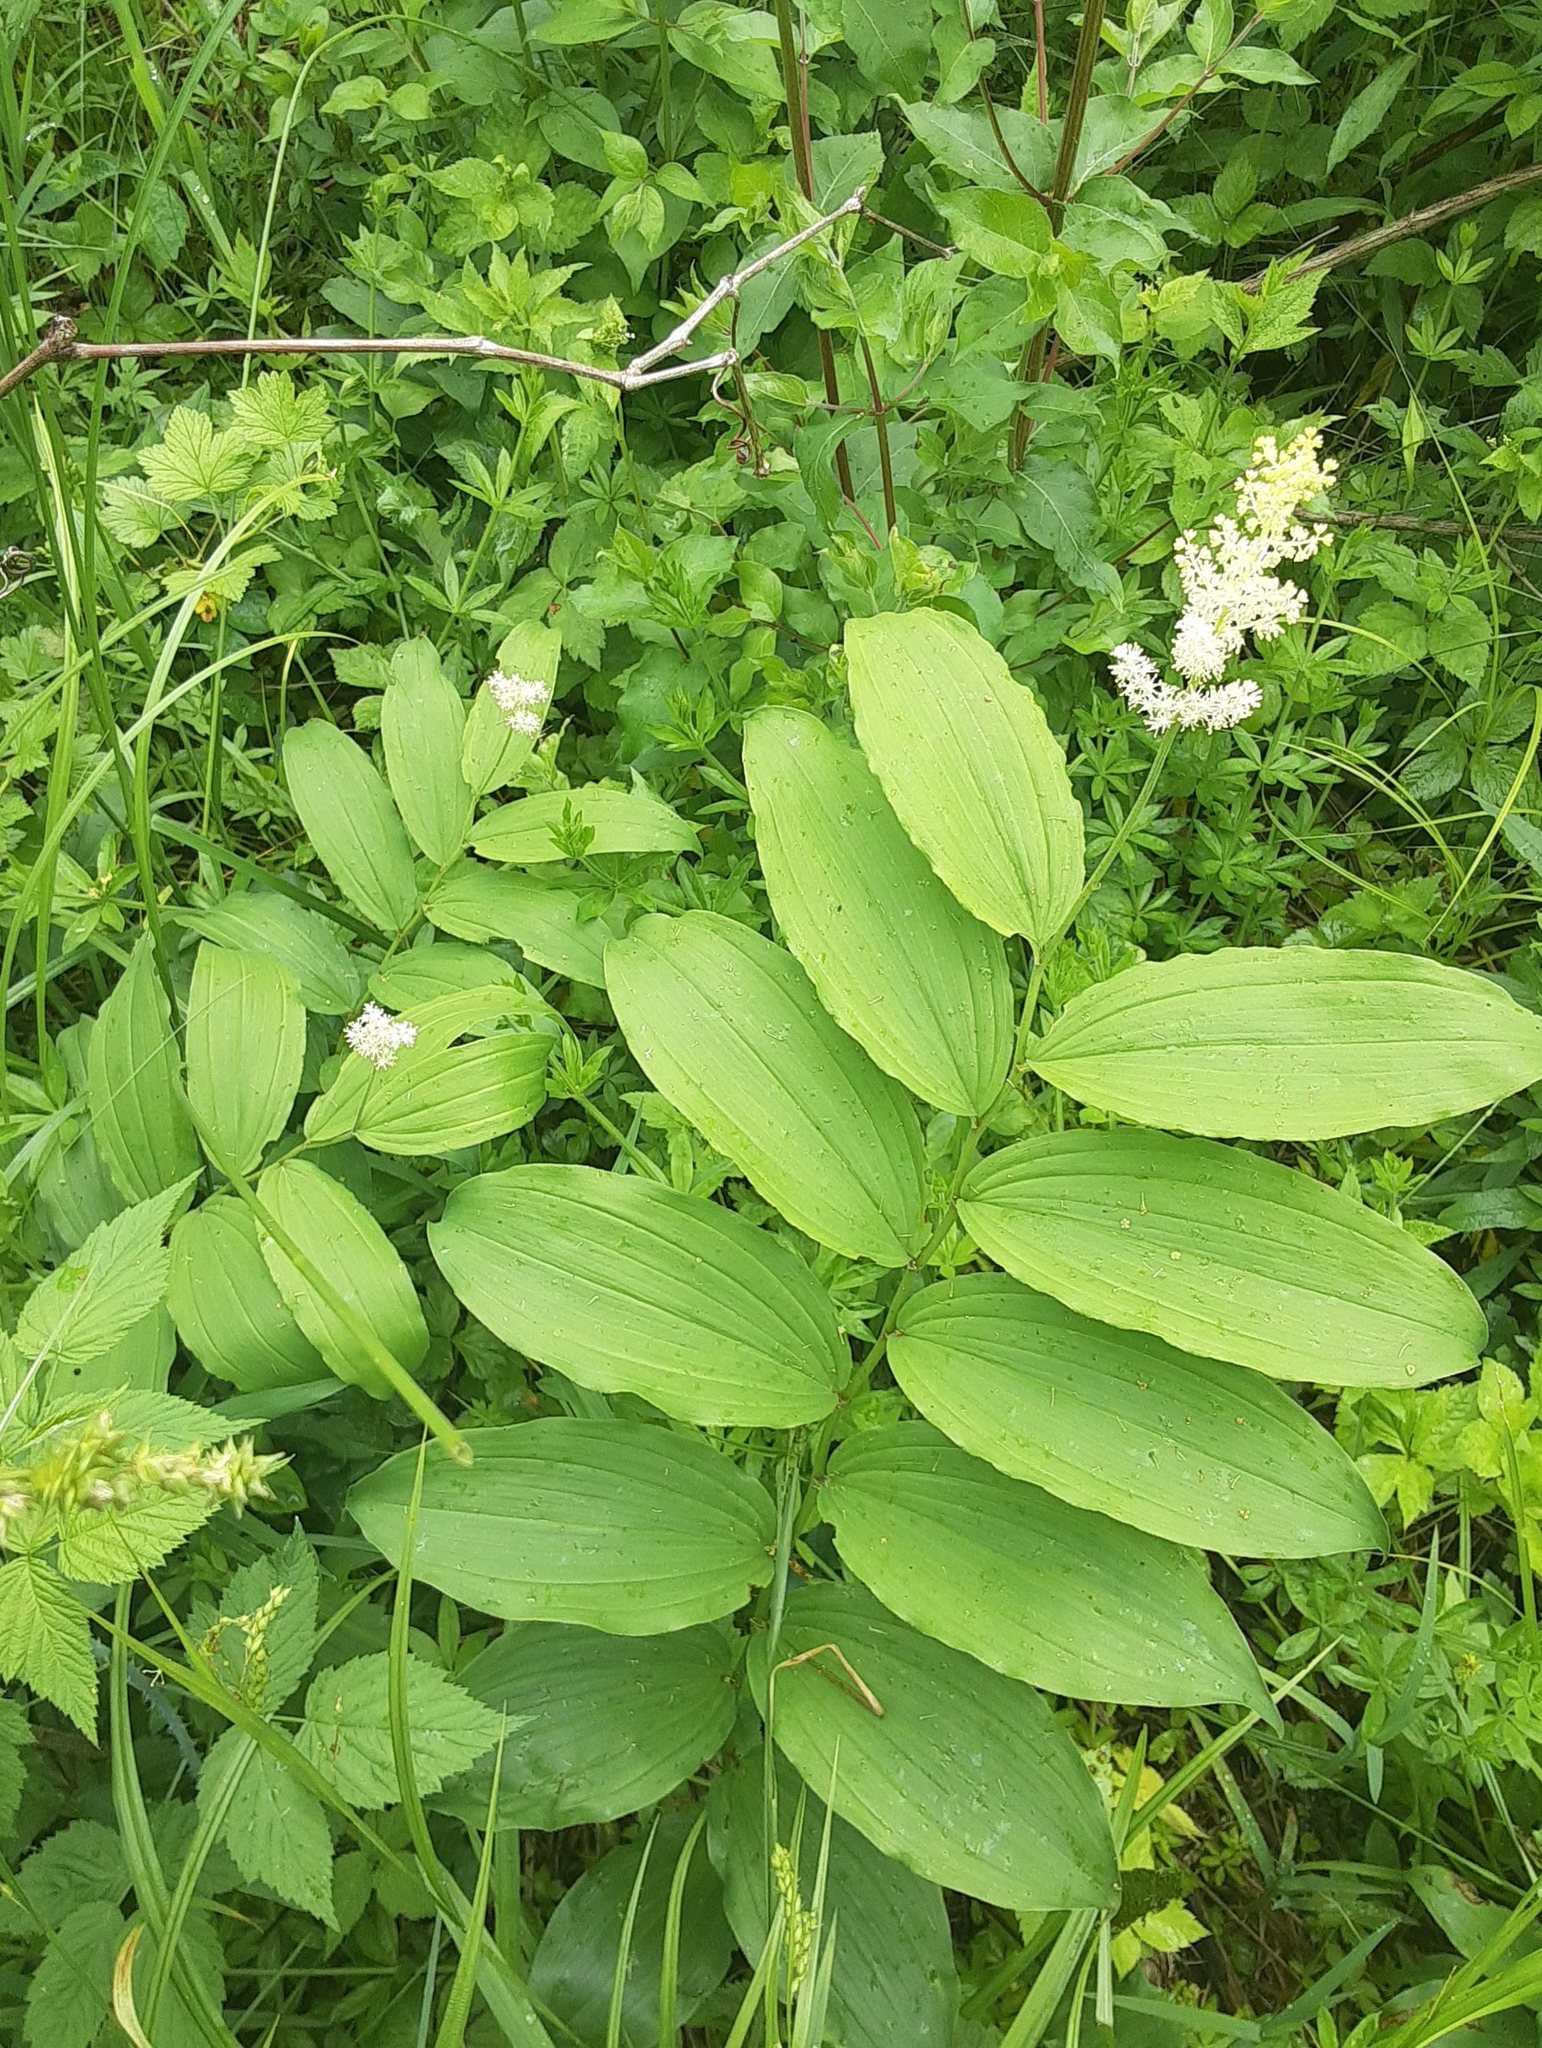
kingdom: Plantae
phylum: Tracheophyta
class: Liliopsida
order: Asparagales
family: Asparagaceae
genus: Maianthemum
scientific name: Maianthemum racemosum
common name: False spikenard
